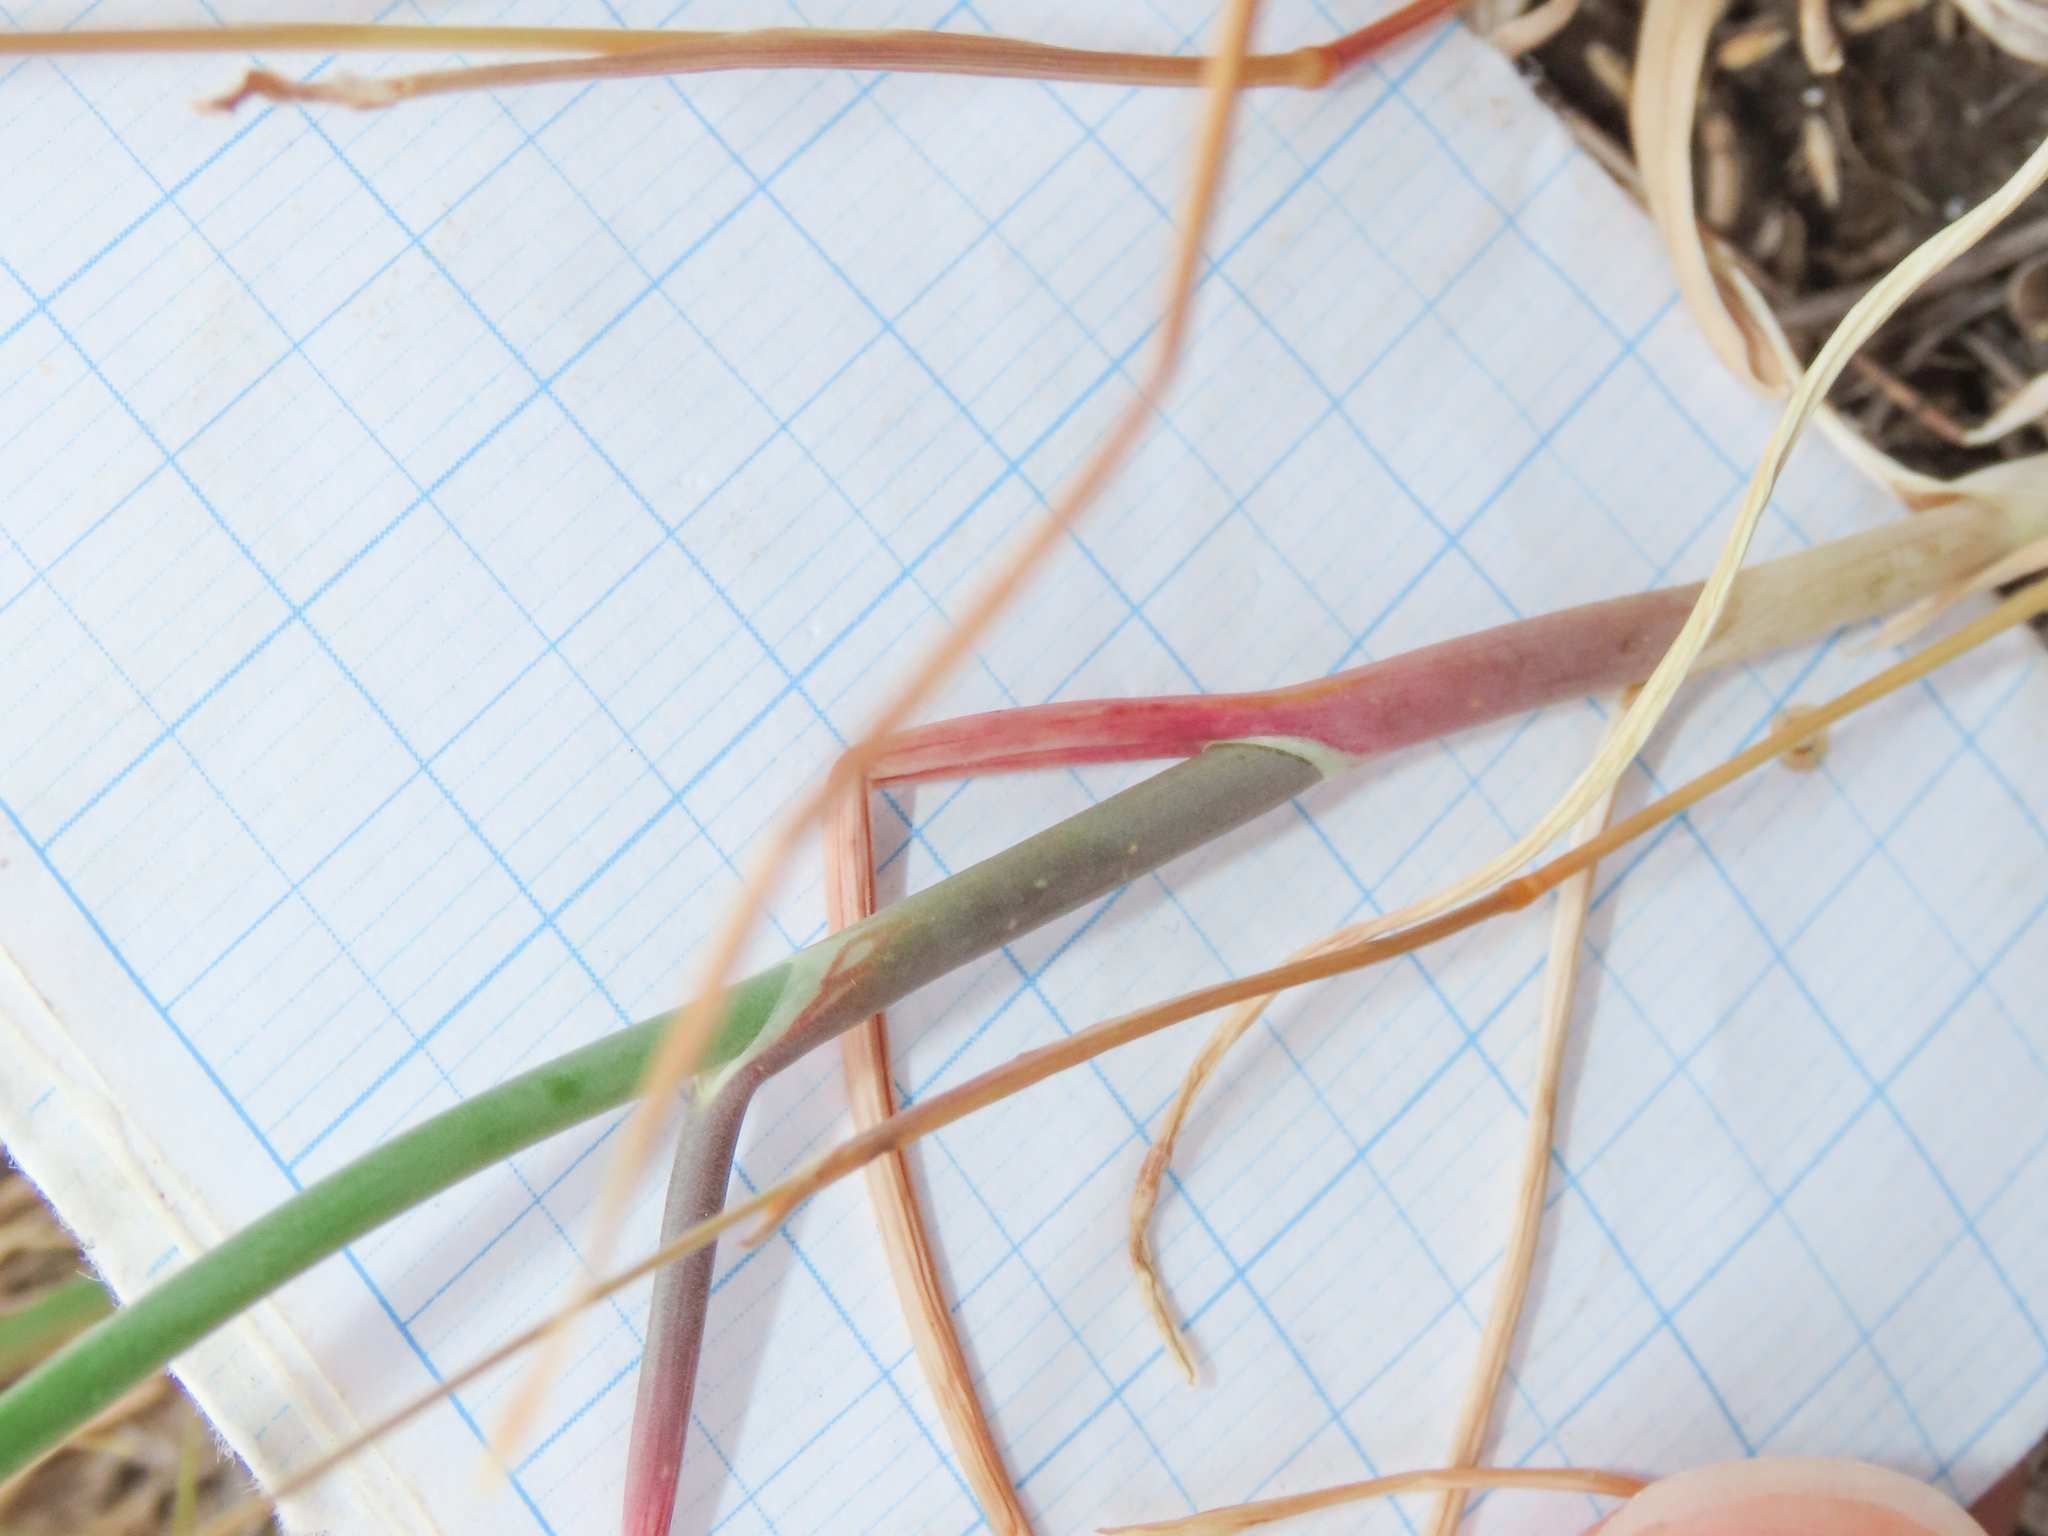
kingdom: Plantae
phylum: Tracheophyta
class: Liliopsida
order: Asparagales
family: Amaryllidaceae
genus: Allium
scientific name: Allium sphaerocephalon
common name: Round-headed leek
